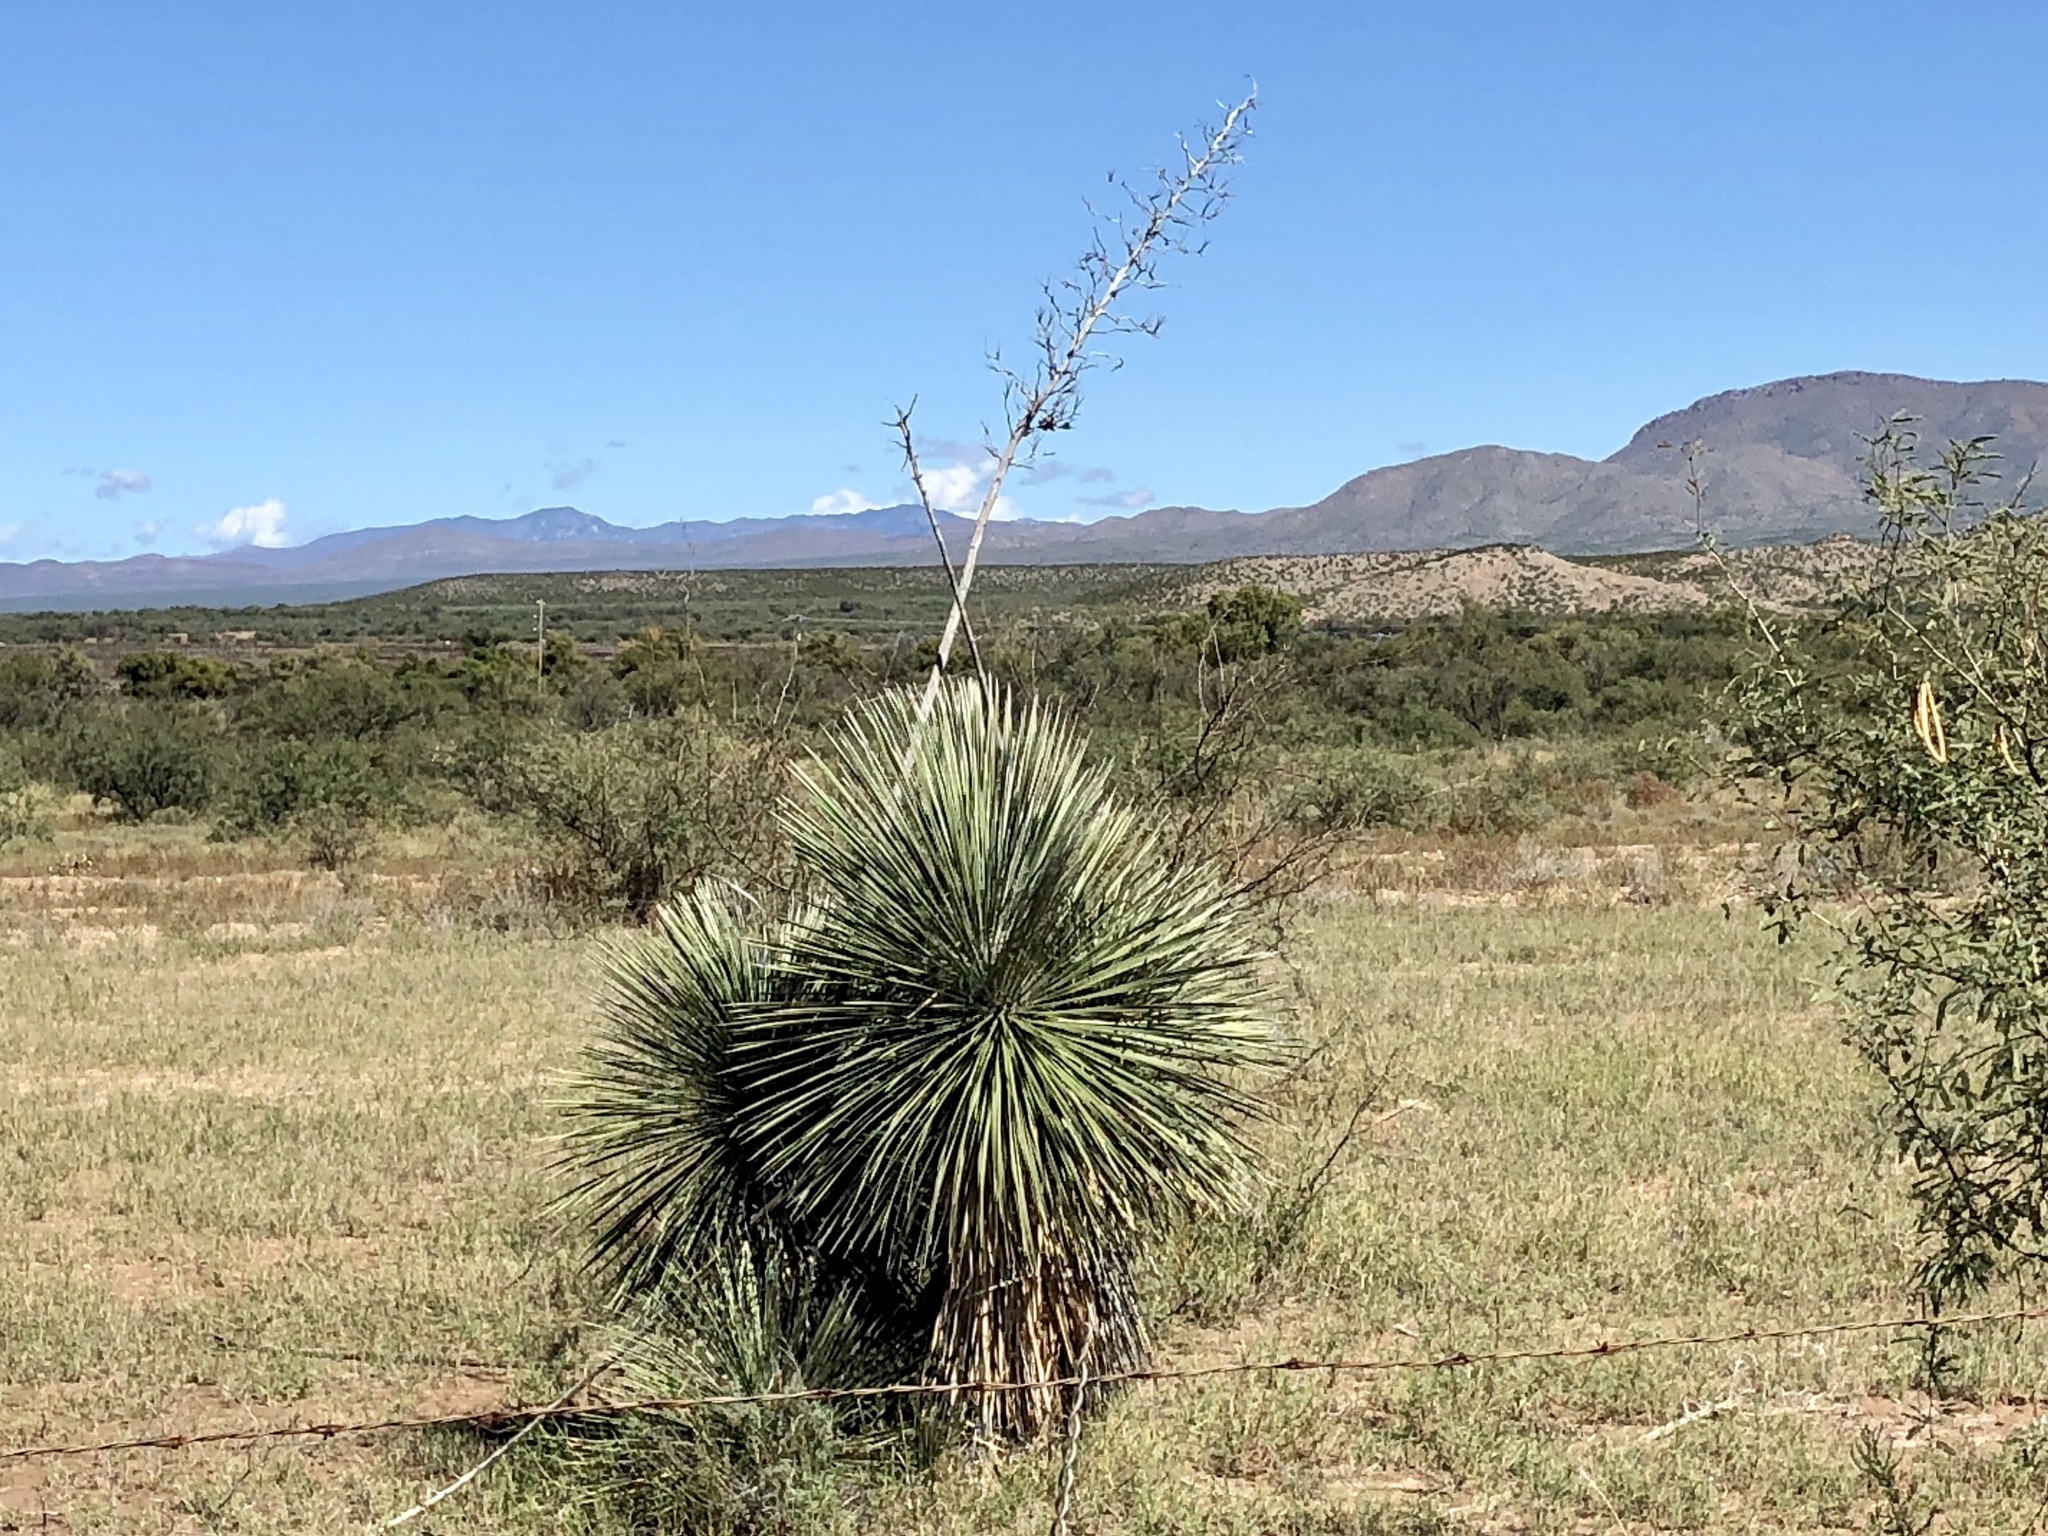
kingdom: Plantae
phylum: Tracheophyta
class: Liliopsida
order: Asparagales
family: Asparagaceae
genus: Yucca
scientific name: Yucca elata
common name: Palmella
